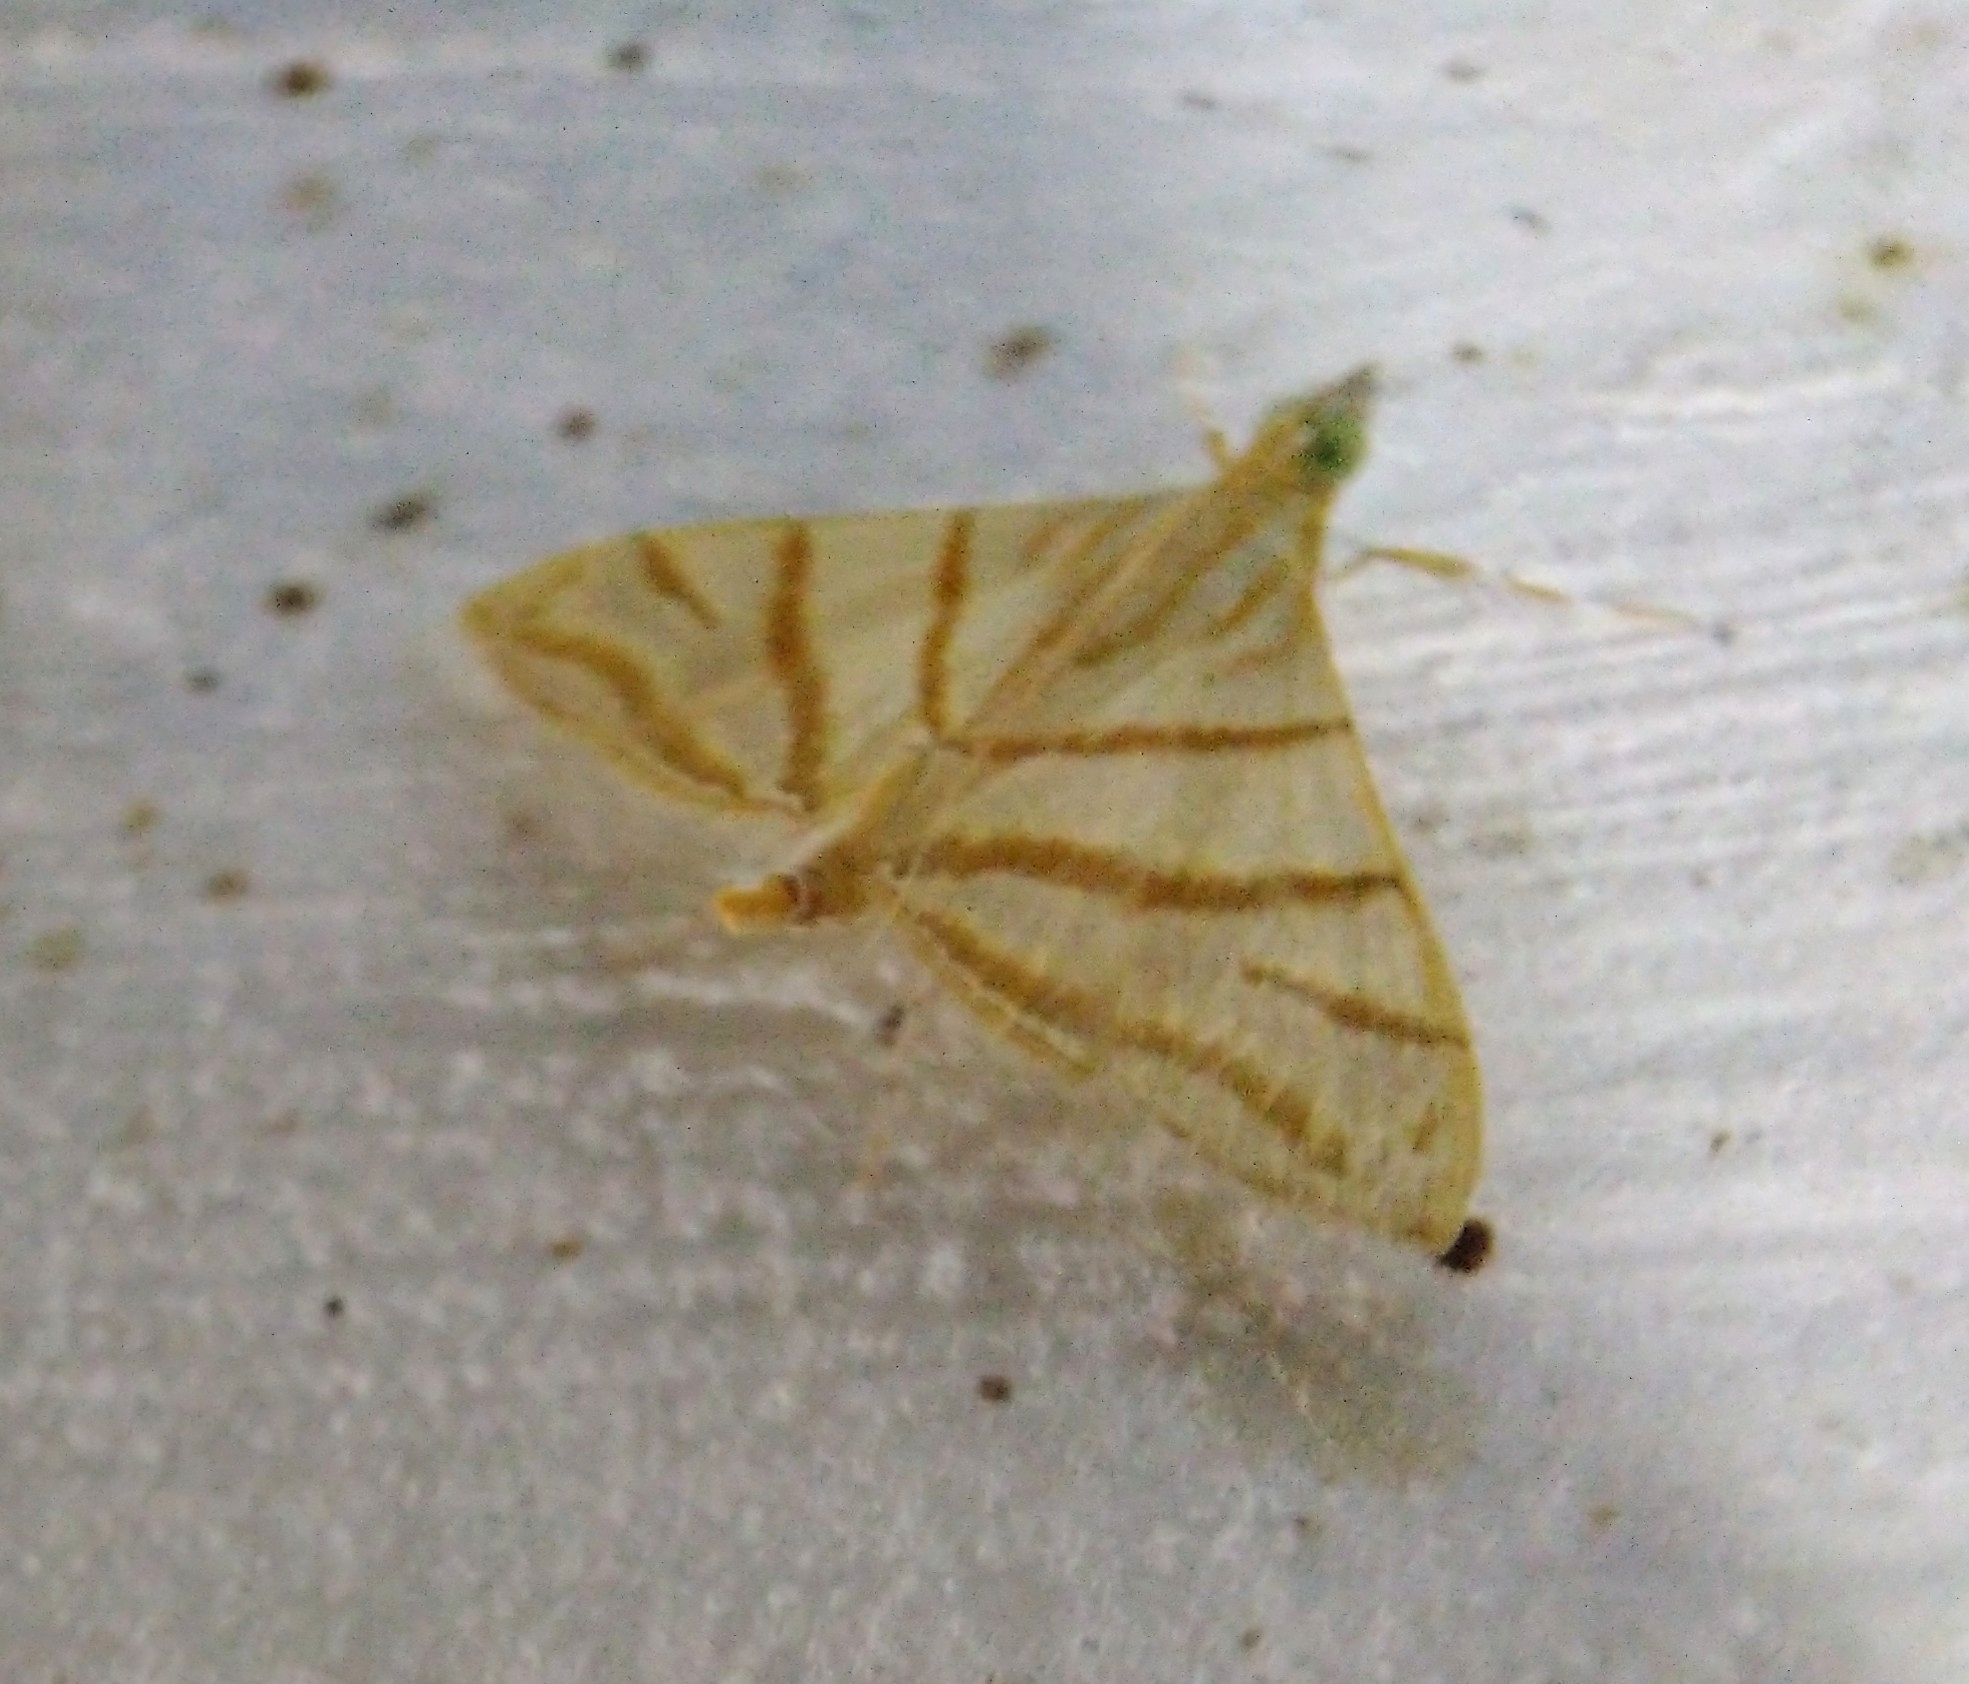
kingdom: Animalia
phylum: Arthropoda
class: Insecta
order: Lepidoptera
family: Crambidae
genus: Pagyda
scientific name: Pagyda salvalis
